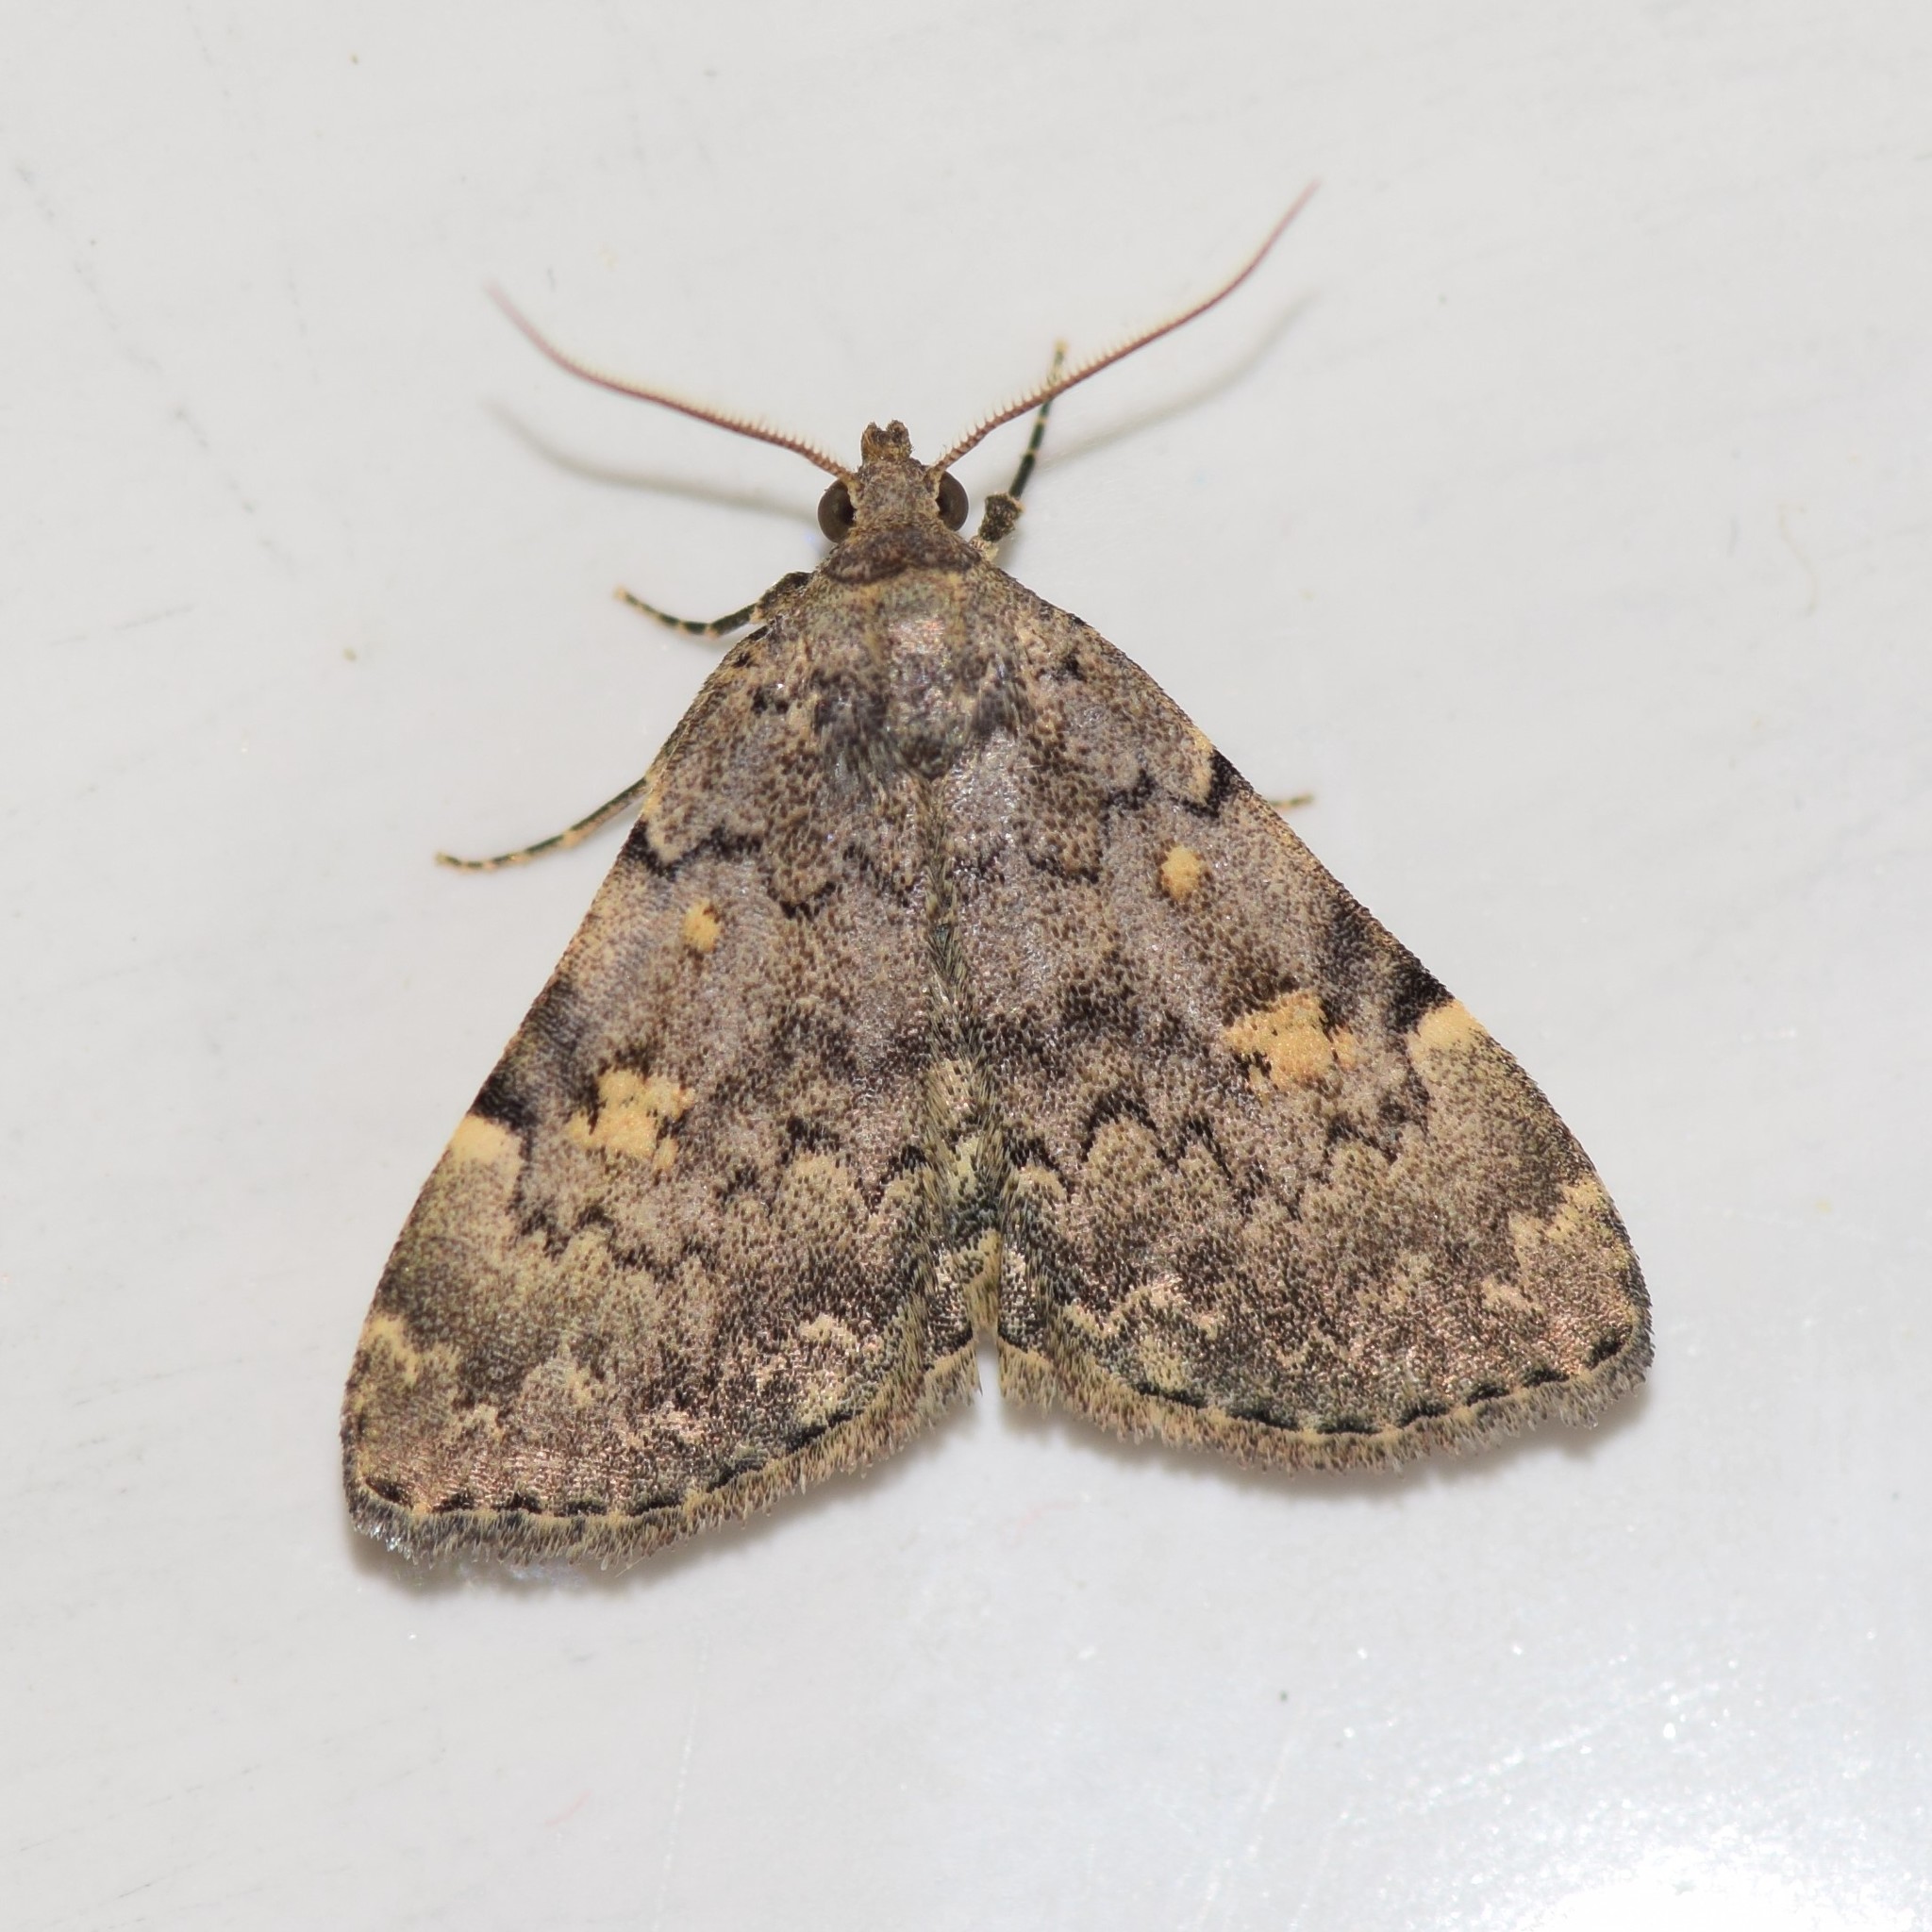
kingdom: Animalia
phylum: Arthropoda
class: Insecta
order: Lepidoptera
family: Erebidae
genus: Idia
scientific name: Idia aemula
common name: Common idia moth
